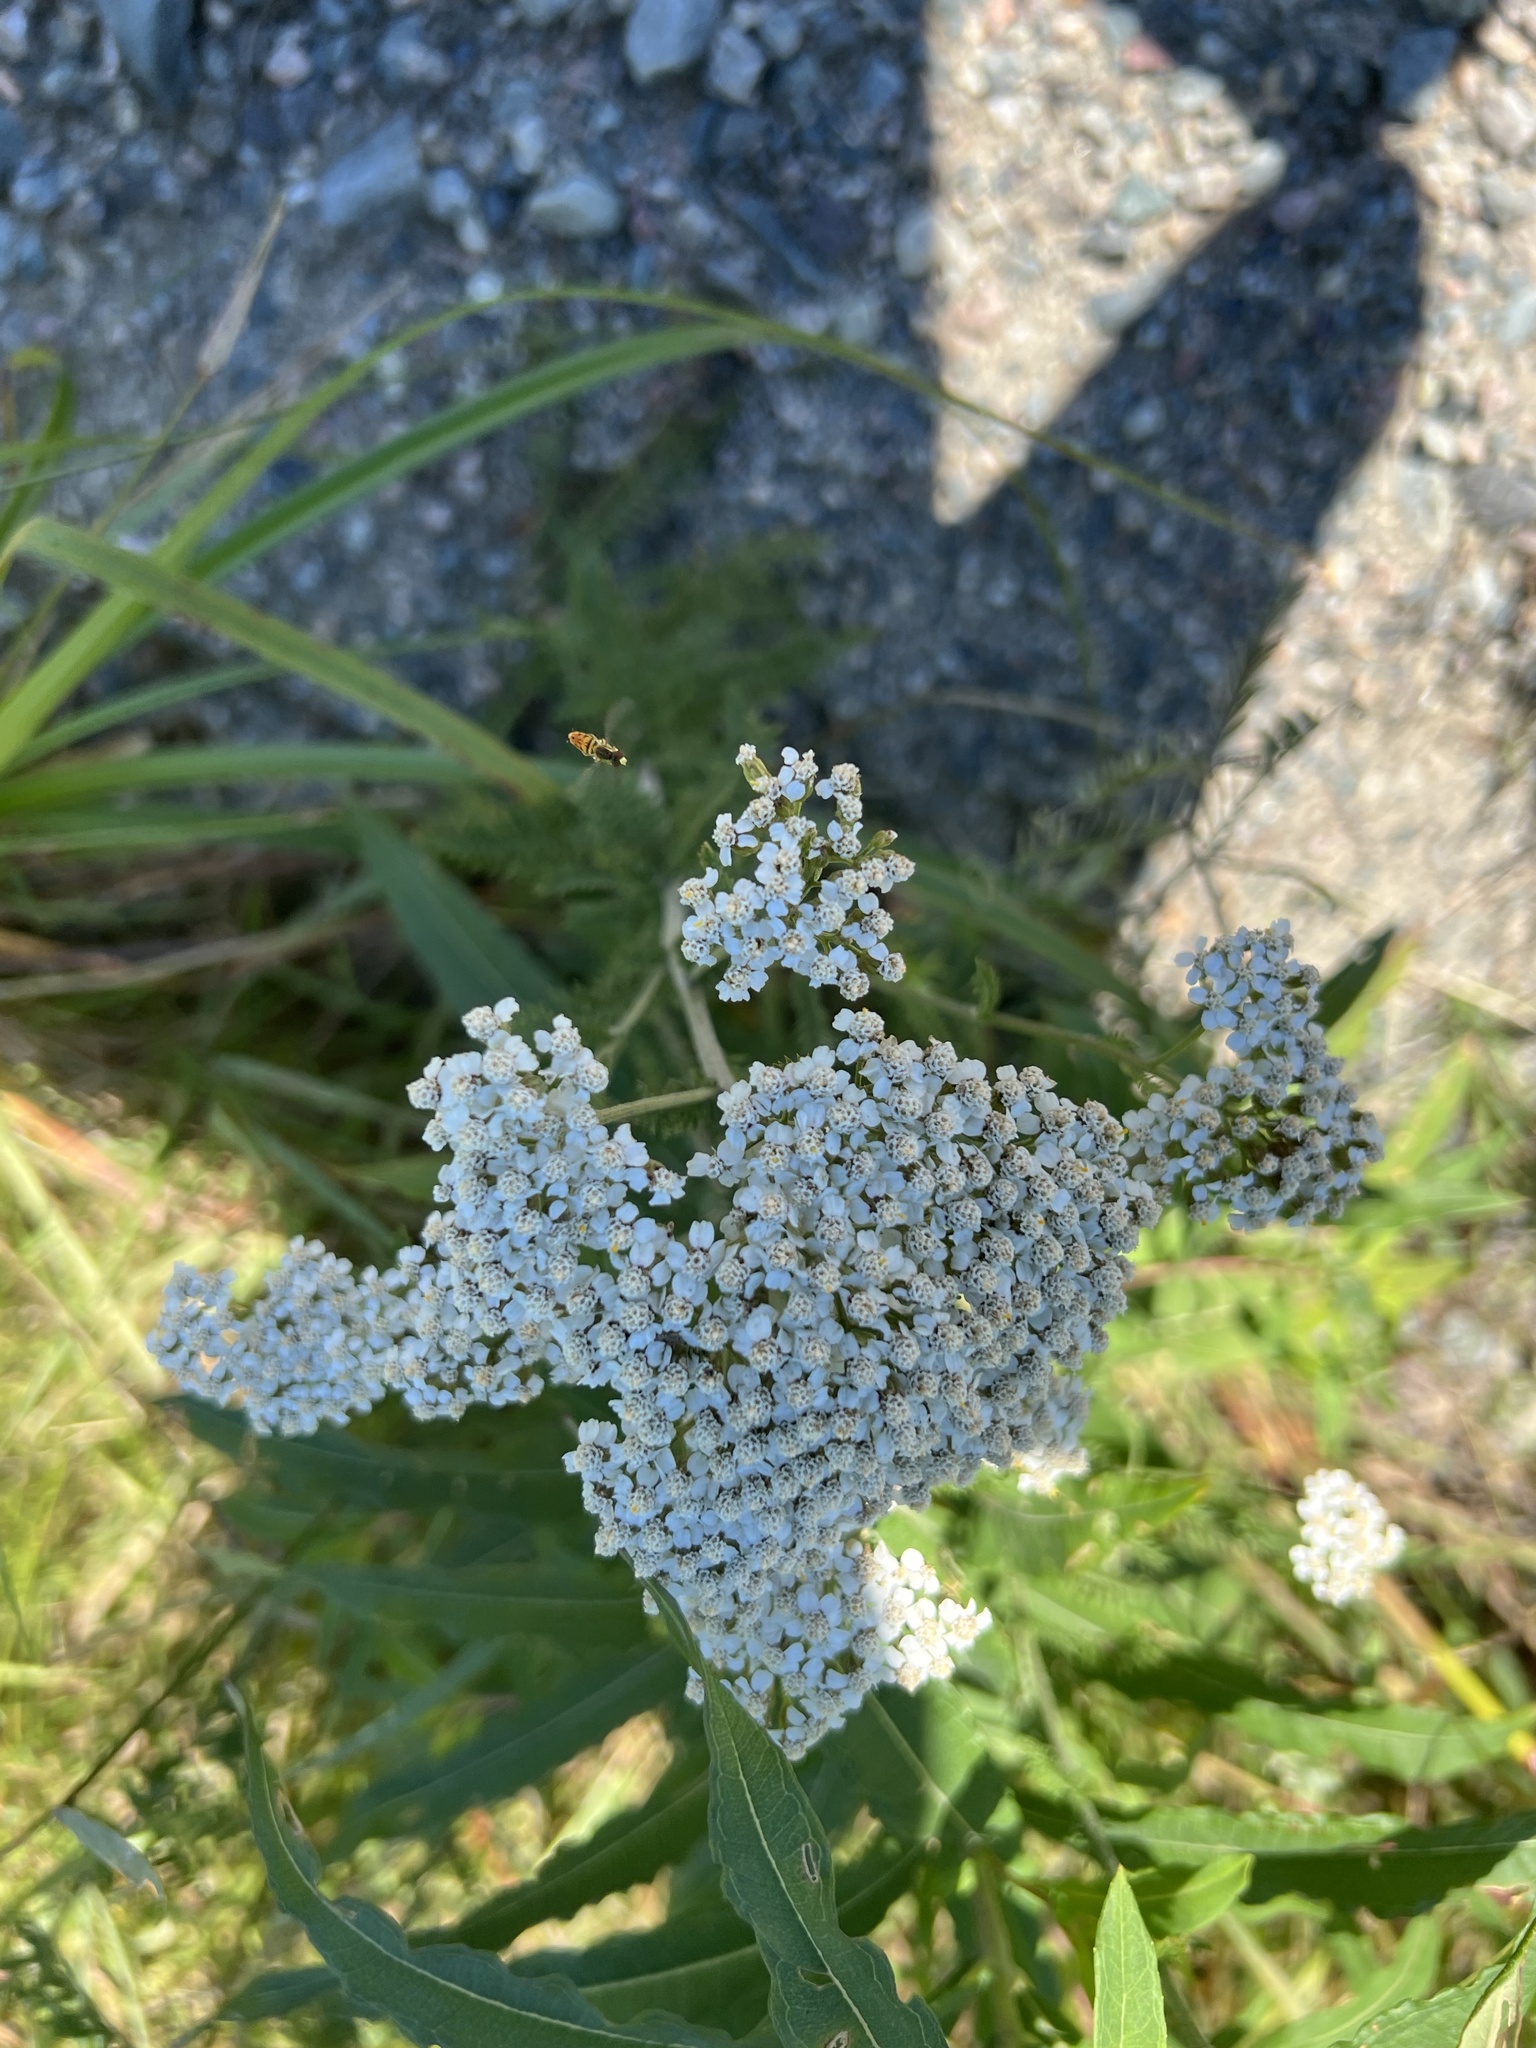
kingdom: Plantae
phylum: Tracheophyta
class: Magnoliopsida
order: Asterales
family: Asteraceae
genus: Achillea
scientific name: Achillea millefolium
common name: Yarrow
